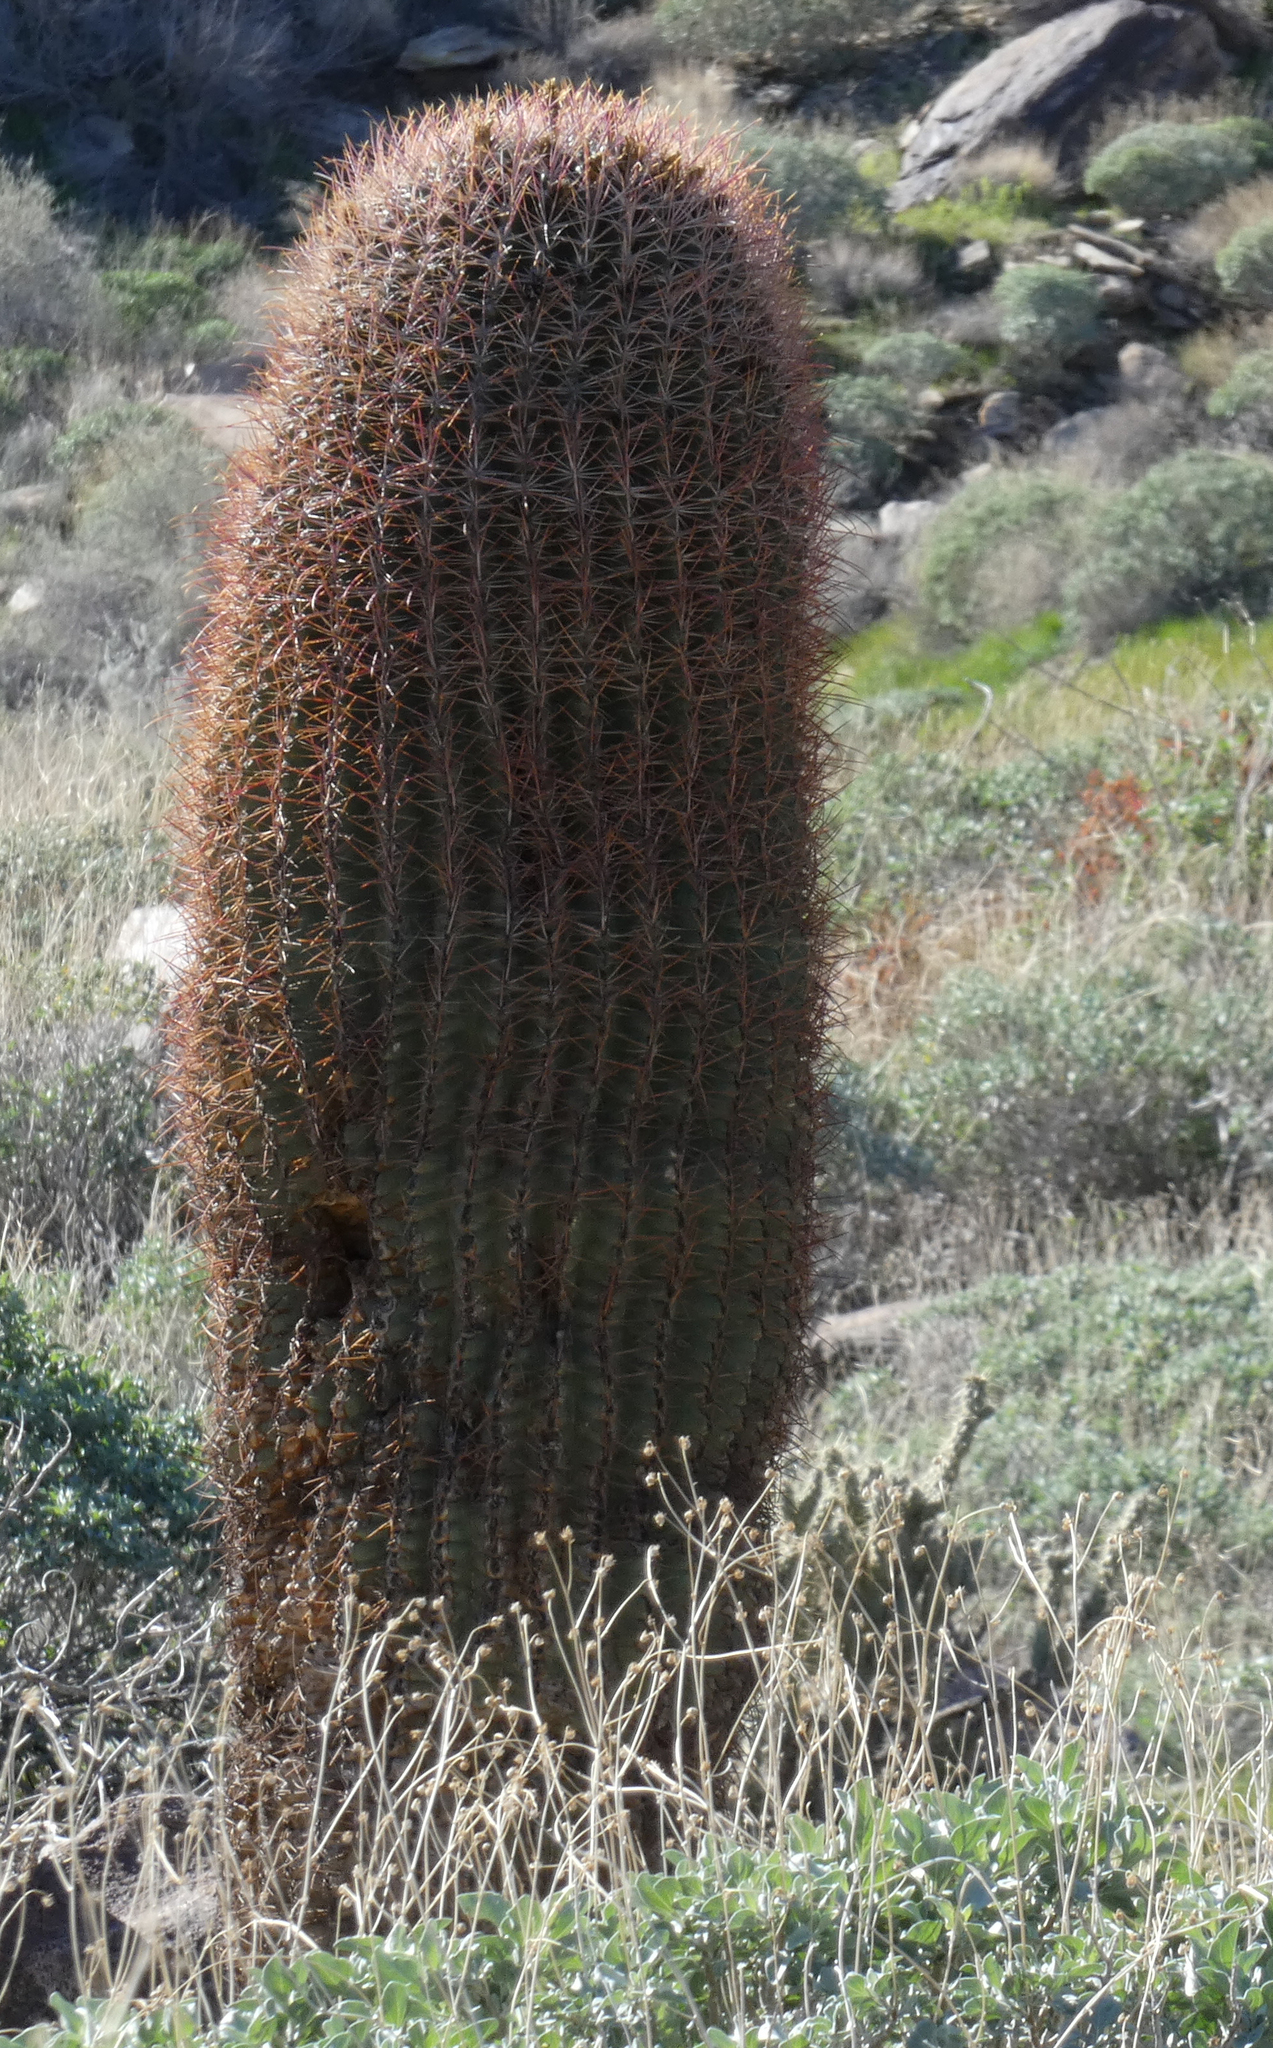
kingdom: Plantae
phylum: Tracheophyta
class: Magnoliopsida
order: Caryophyllales
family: Cactaceae
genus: Ferocactus
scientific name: Ferocactus cylindraceus
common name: California barrel cactus
